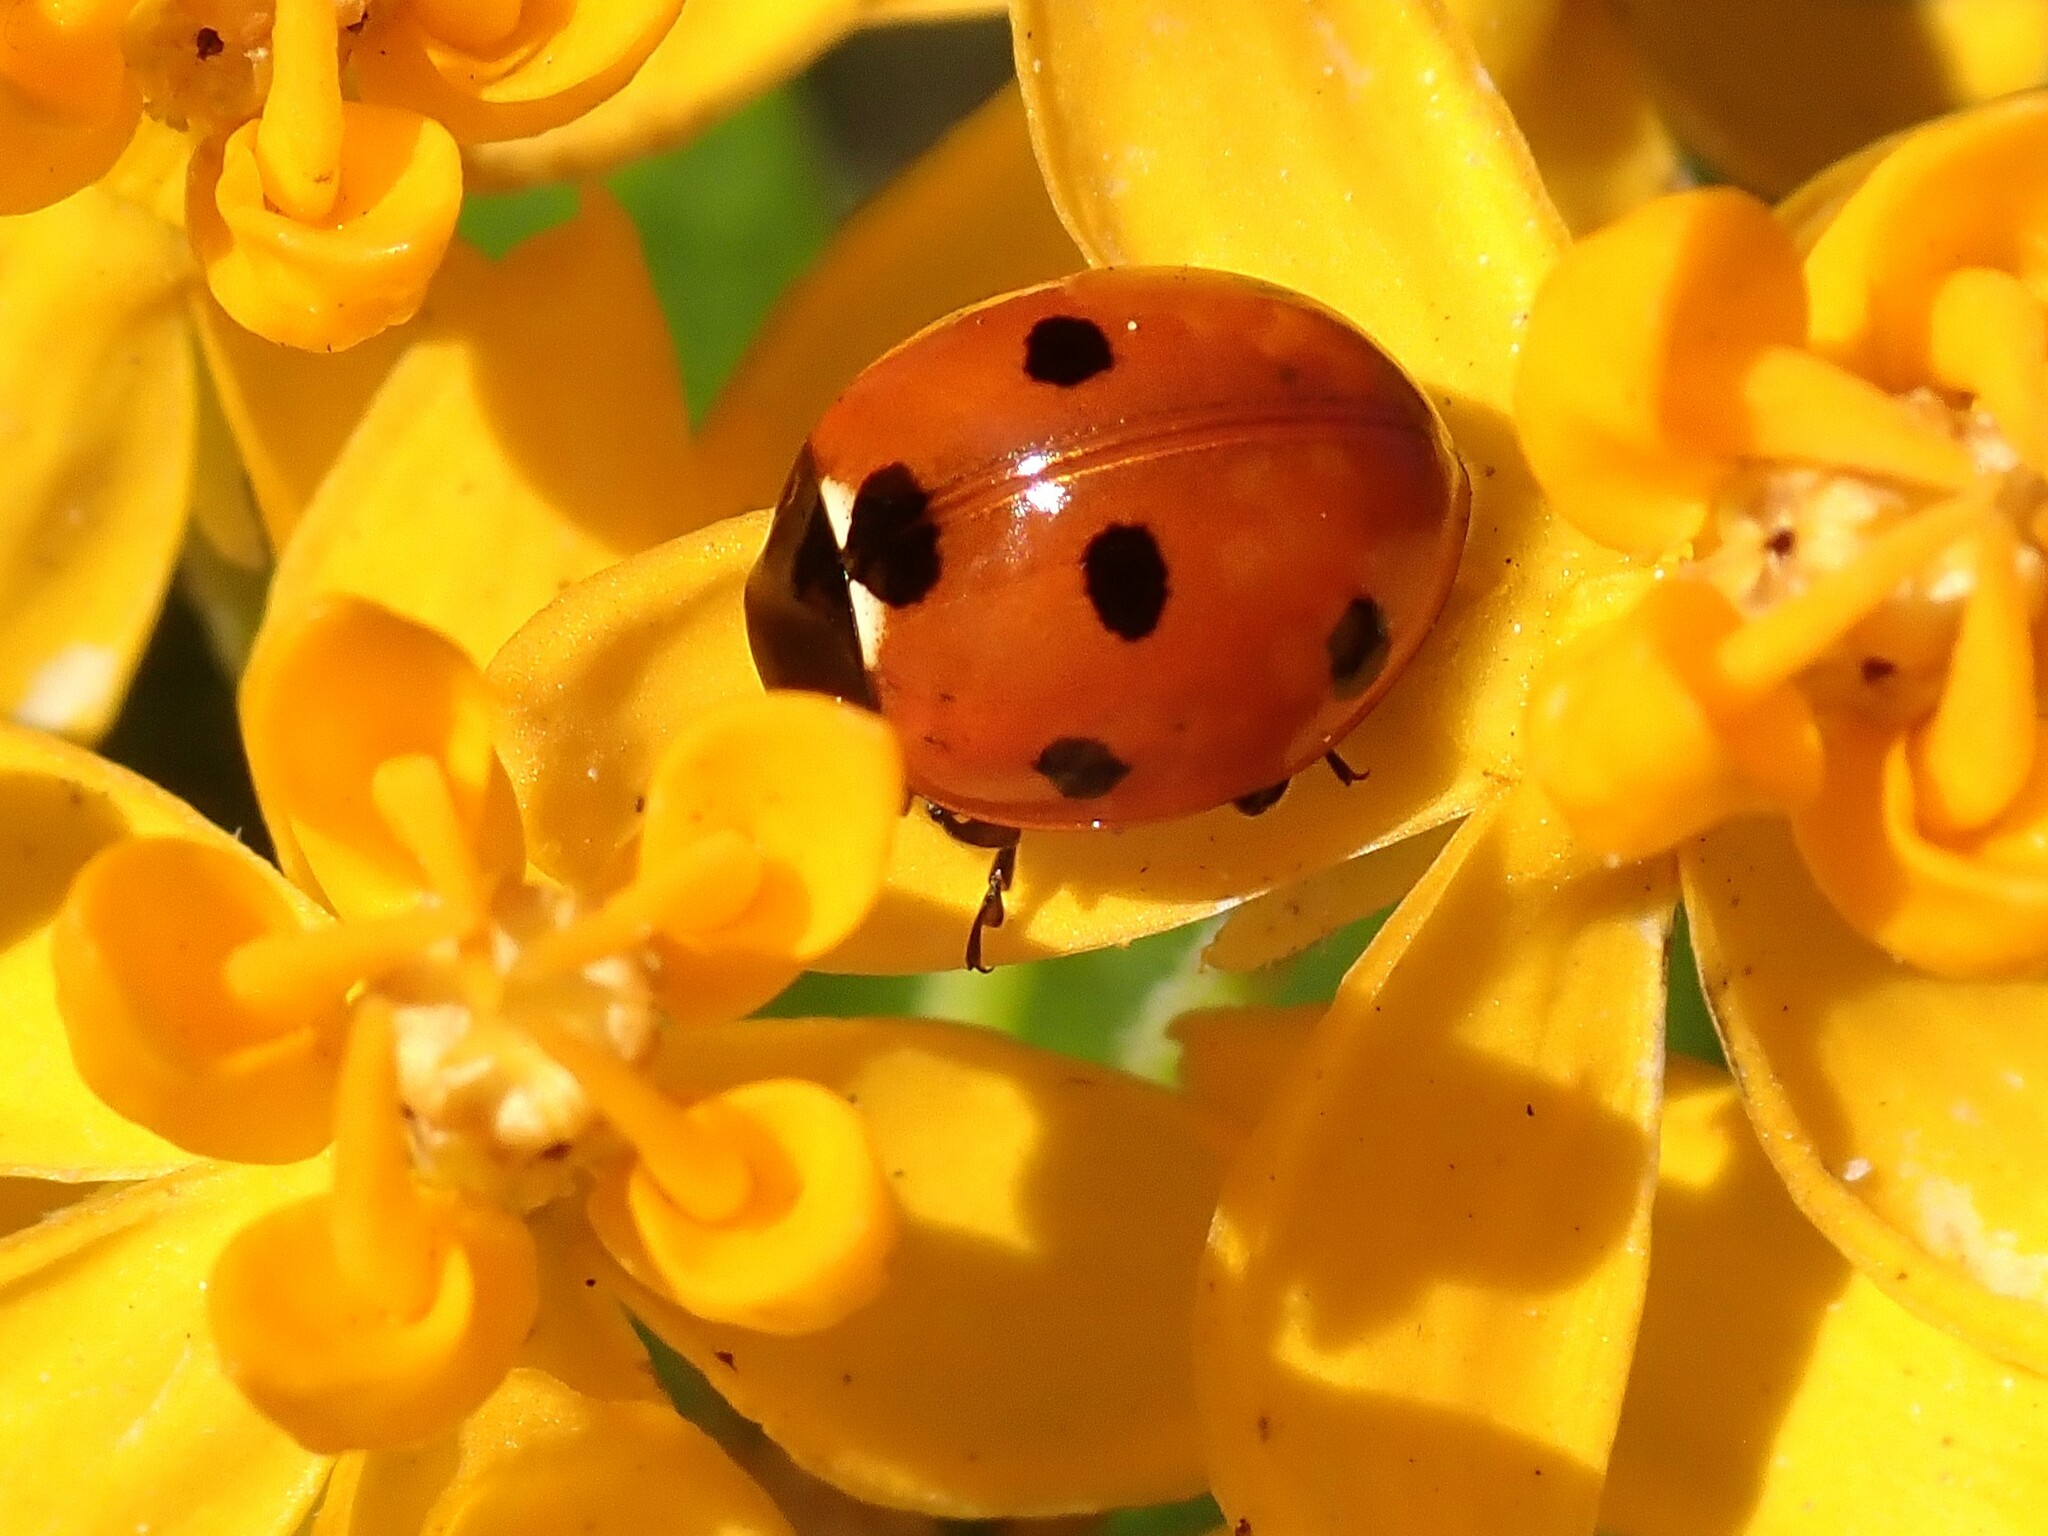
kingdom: Animalia
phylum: Arthropoda
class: Insecta
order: Coleoptera
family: Coccinellidae
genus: Coccinella
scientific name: Coccinella septempunctata
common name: Sevenspotted lady beetle
